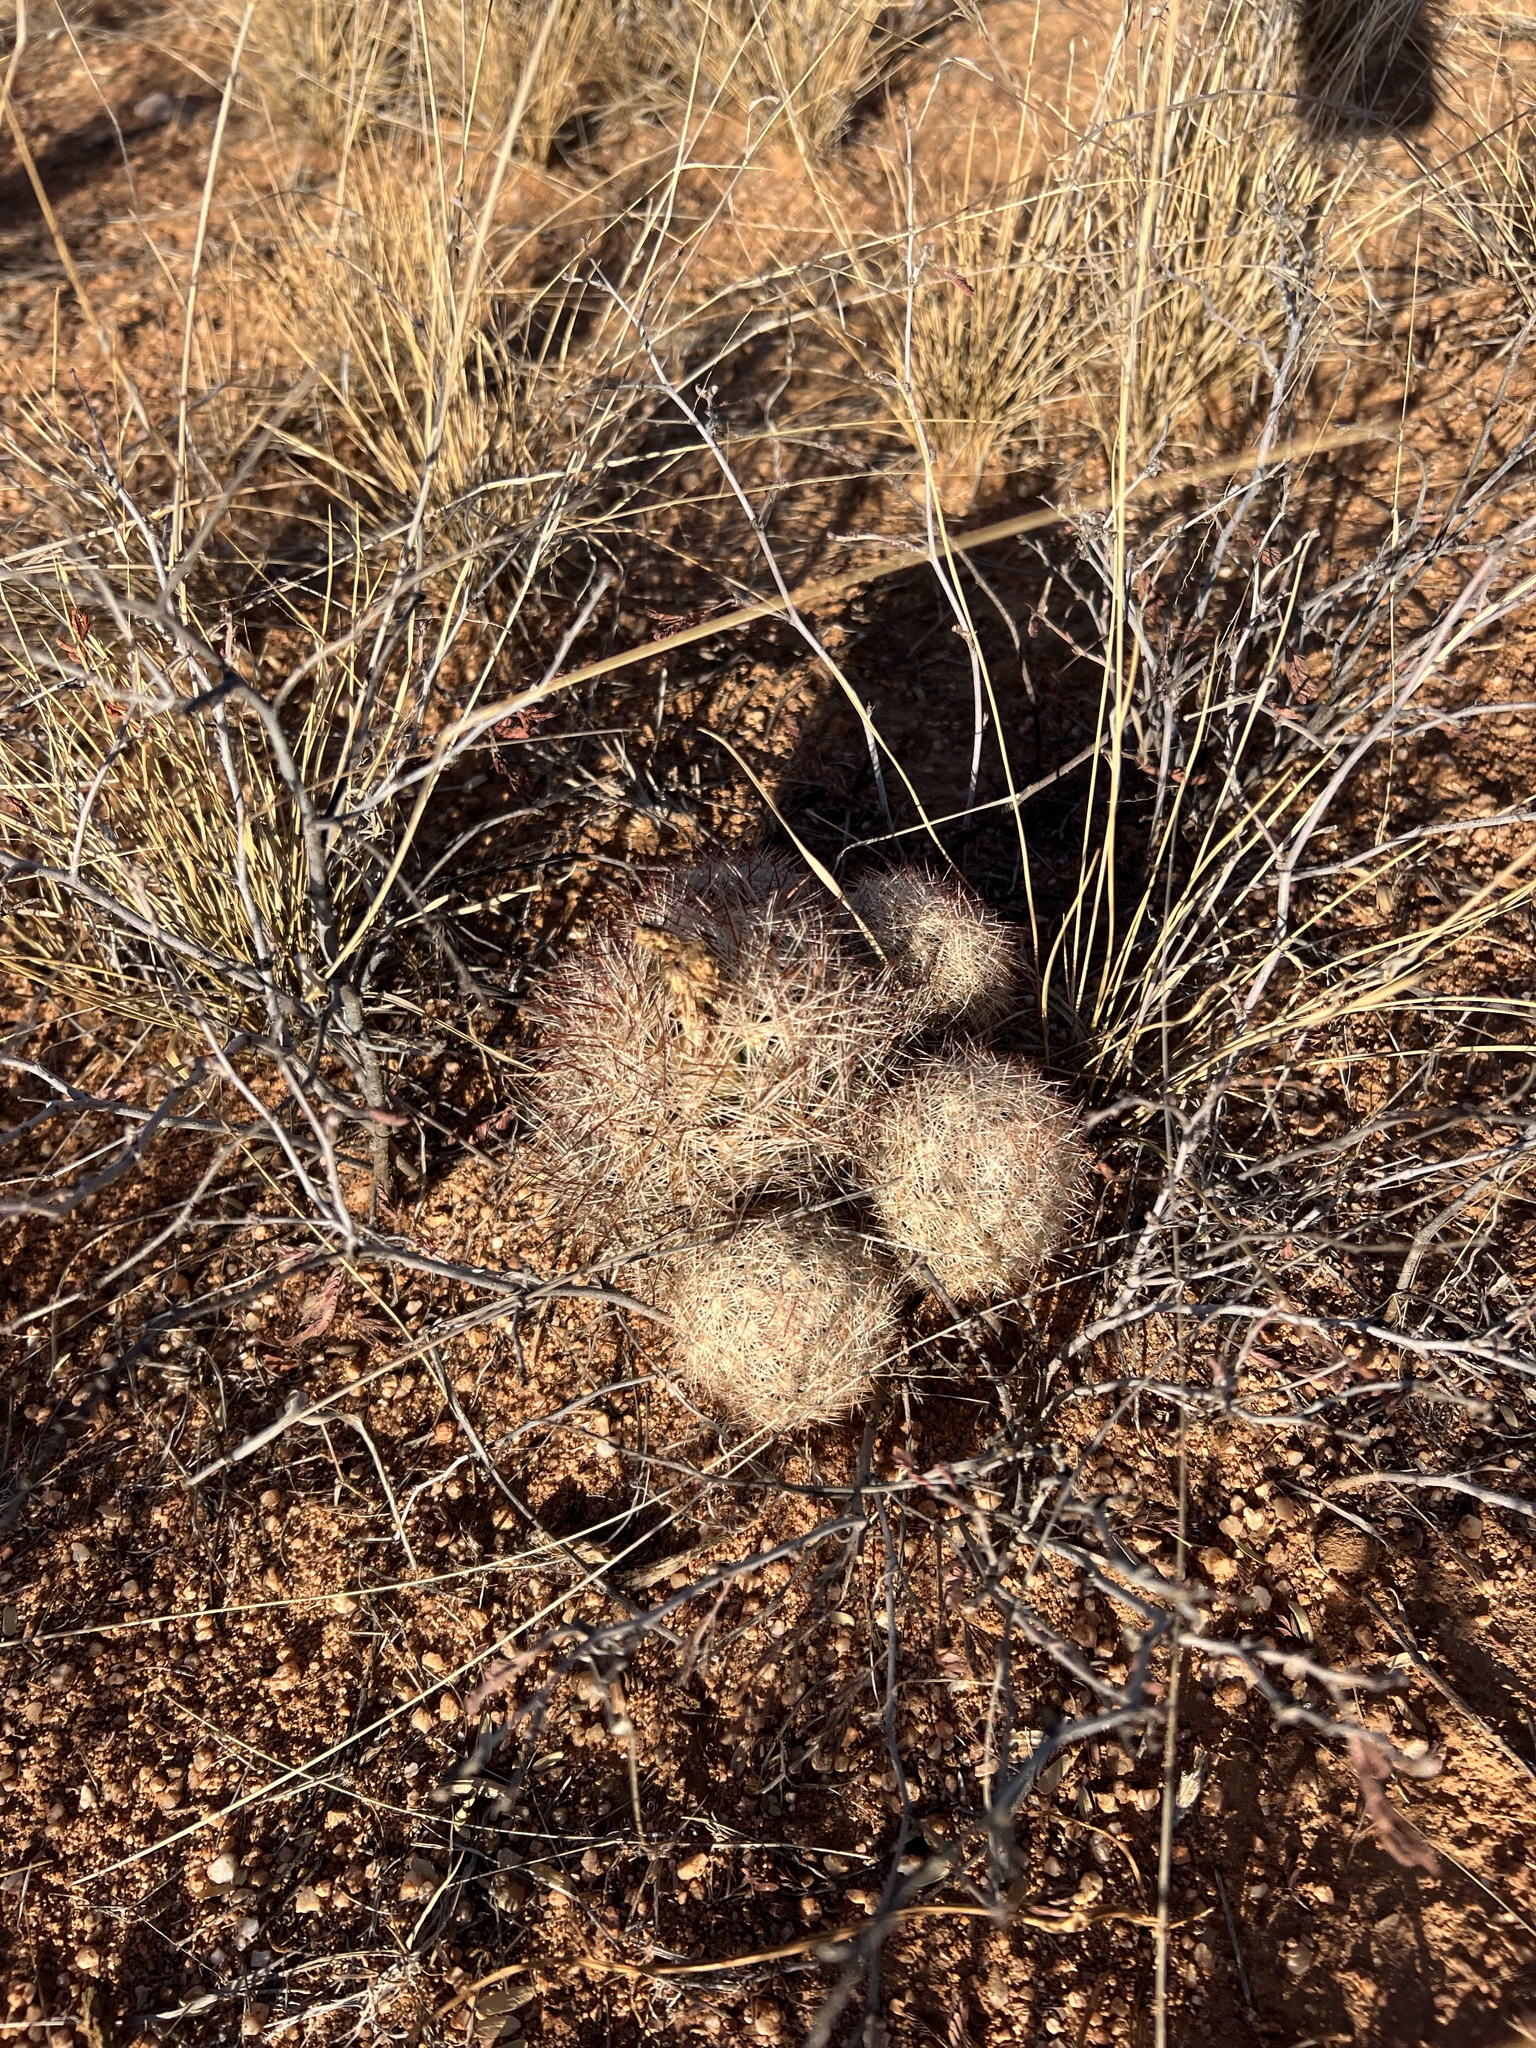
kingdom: Plantae
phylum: Tracheophyta
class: Magnoliopsida
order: Caryophyllales
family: Cactaceae
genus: Sclerocactus
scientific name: Sclerocactus intertextus
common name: White fish-hook cactus
